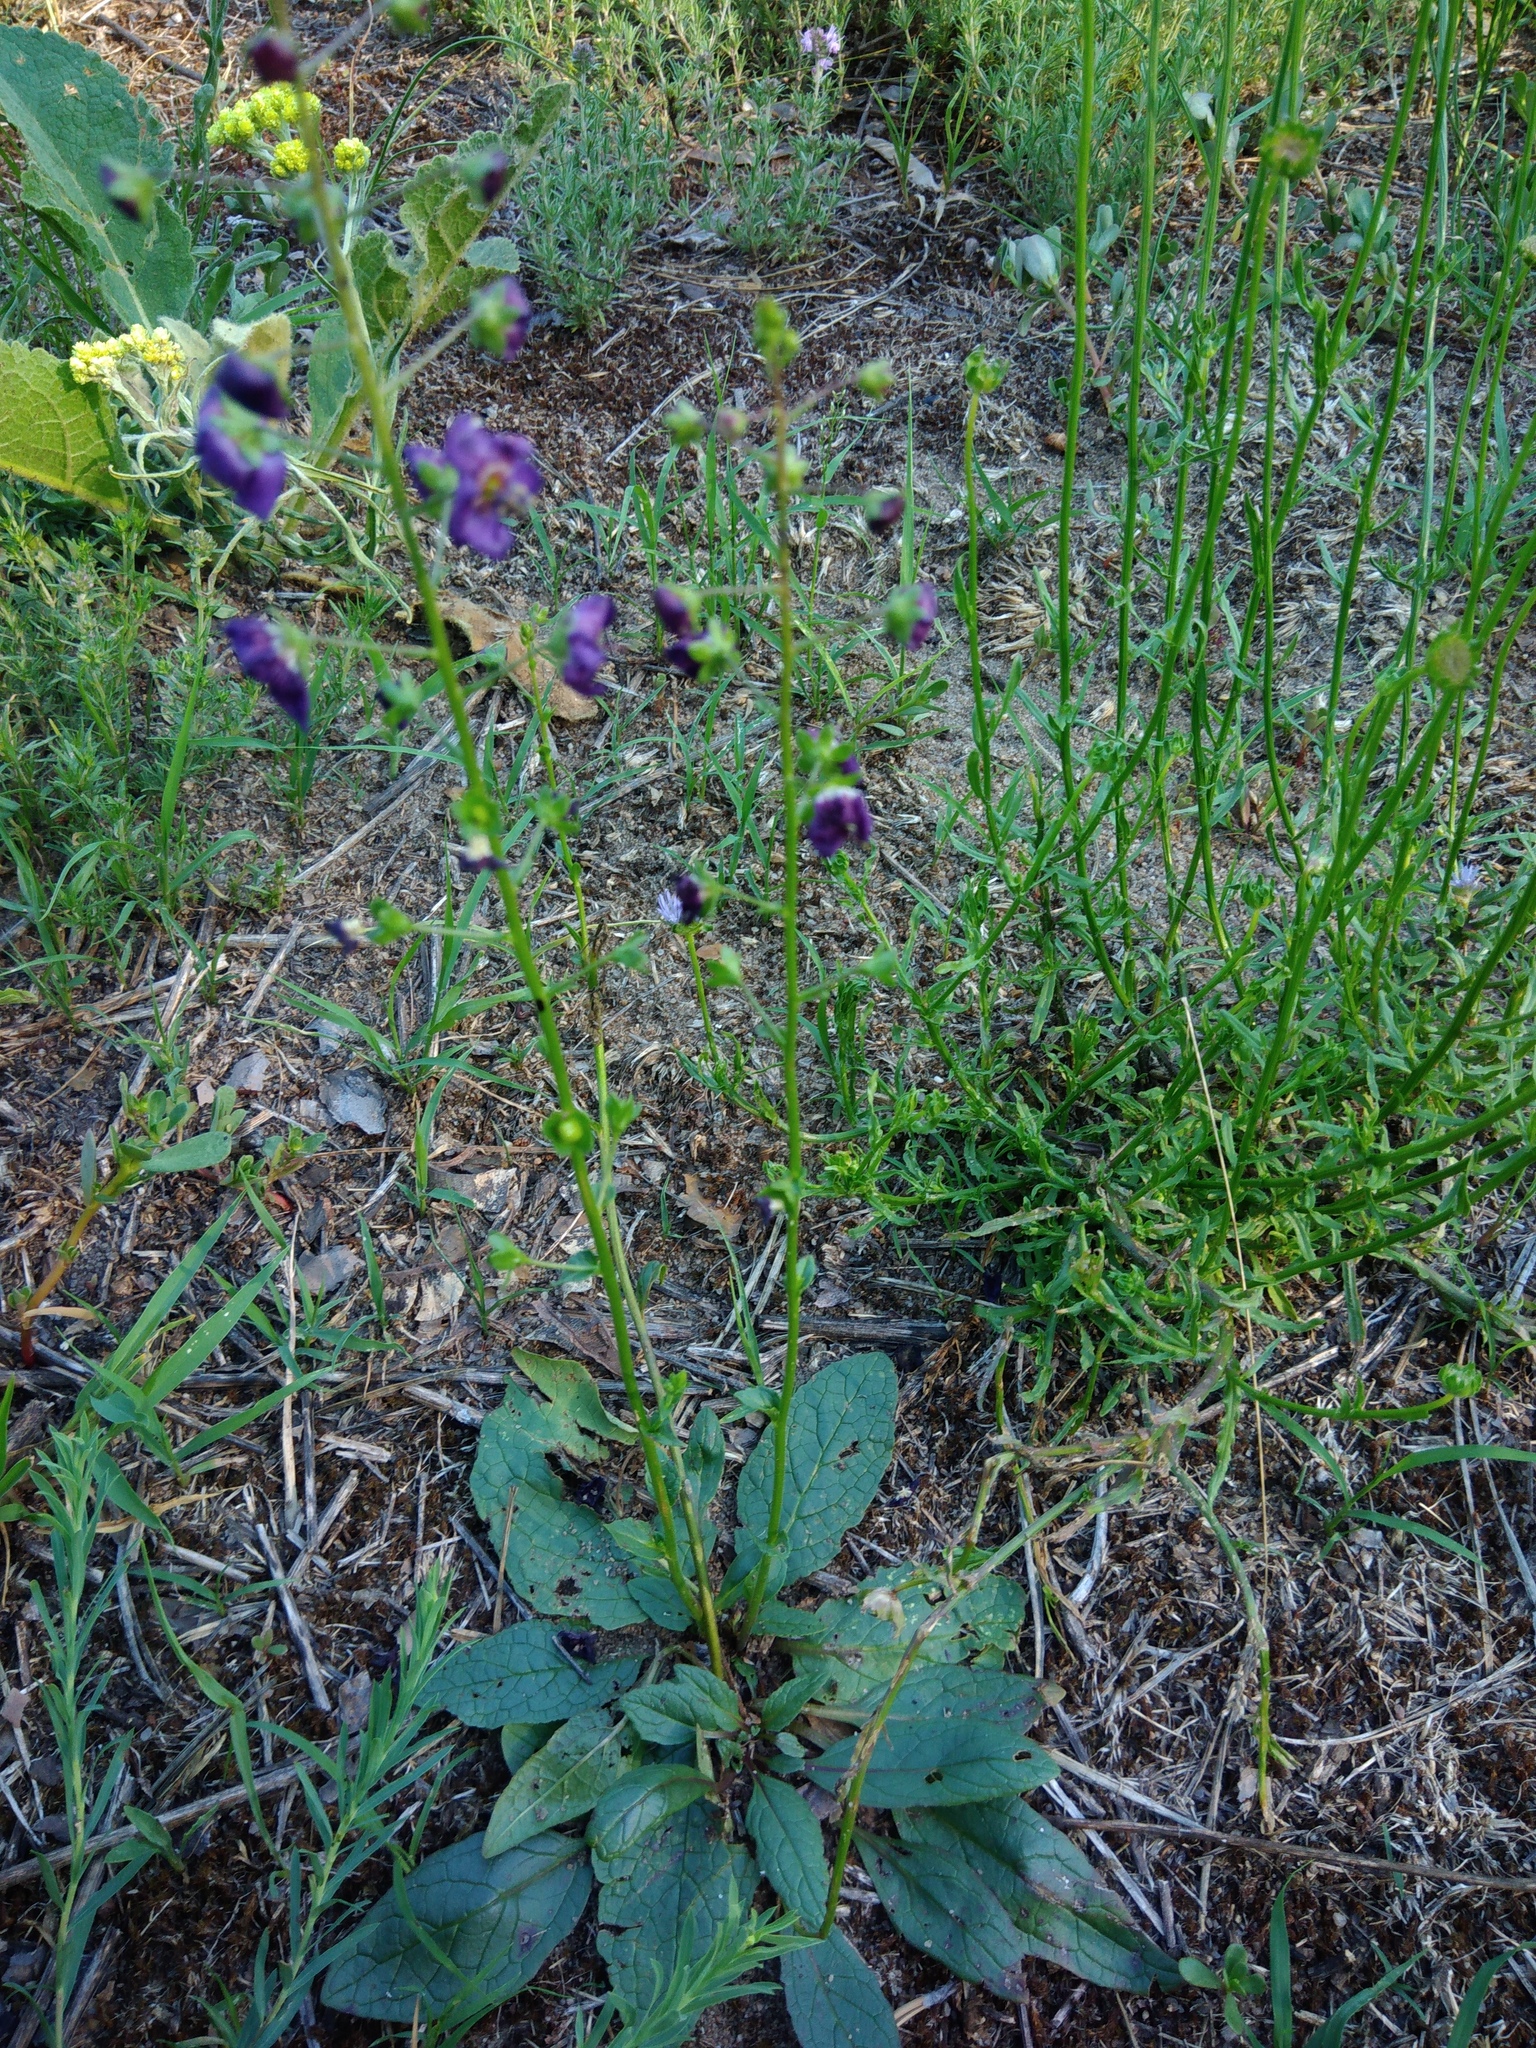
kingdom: Plantae
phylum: Tracheophyta
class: Magnoliopsida
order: Lamiales
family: Scrophulariaceae
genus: Verbascum
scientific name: Verbascum phoeniceum
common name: Purple mullein
